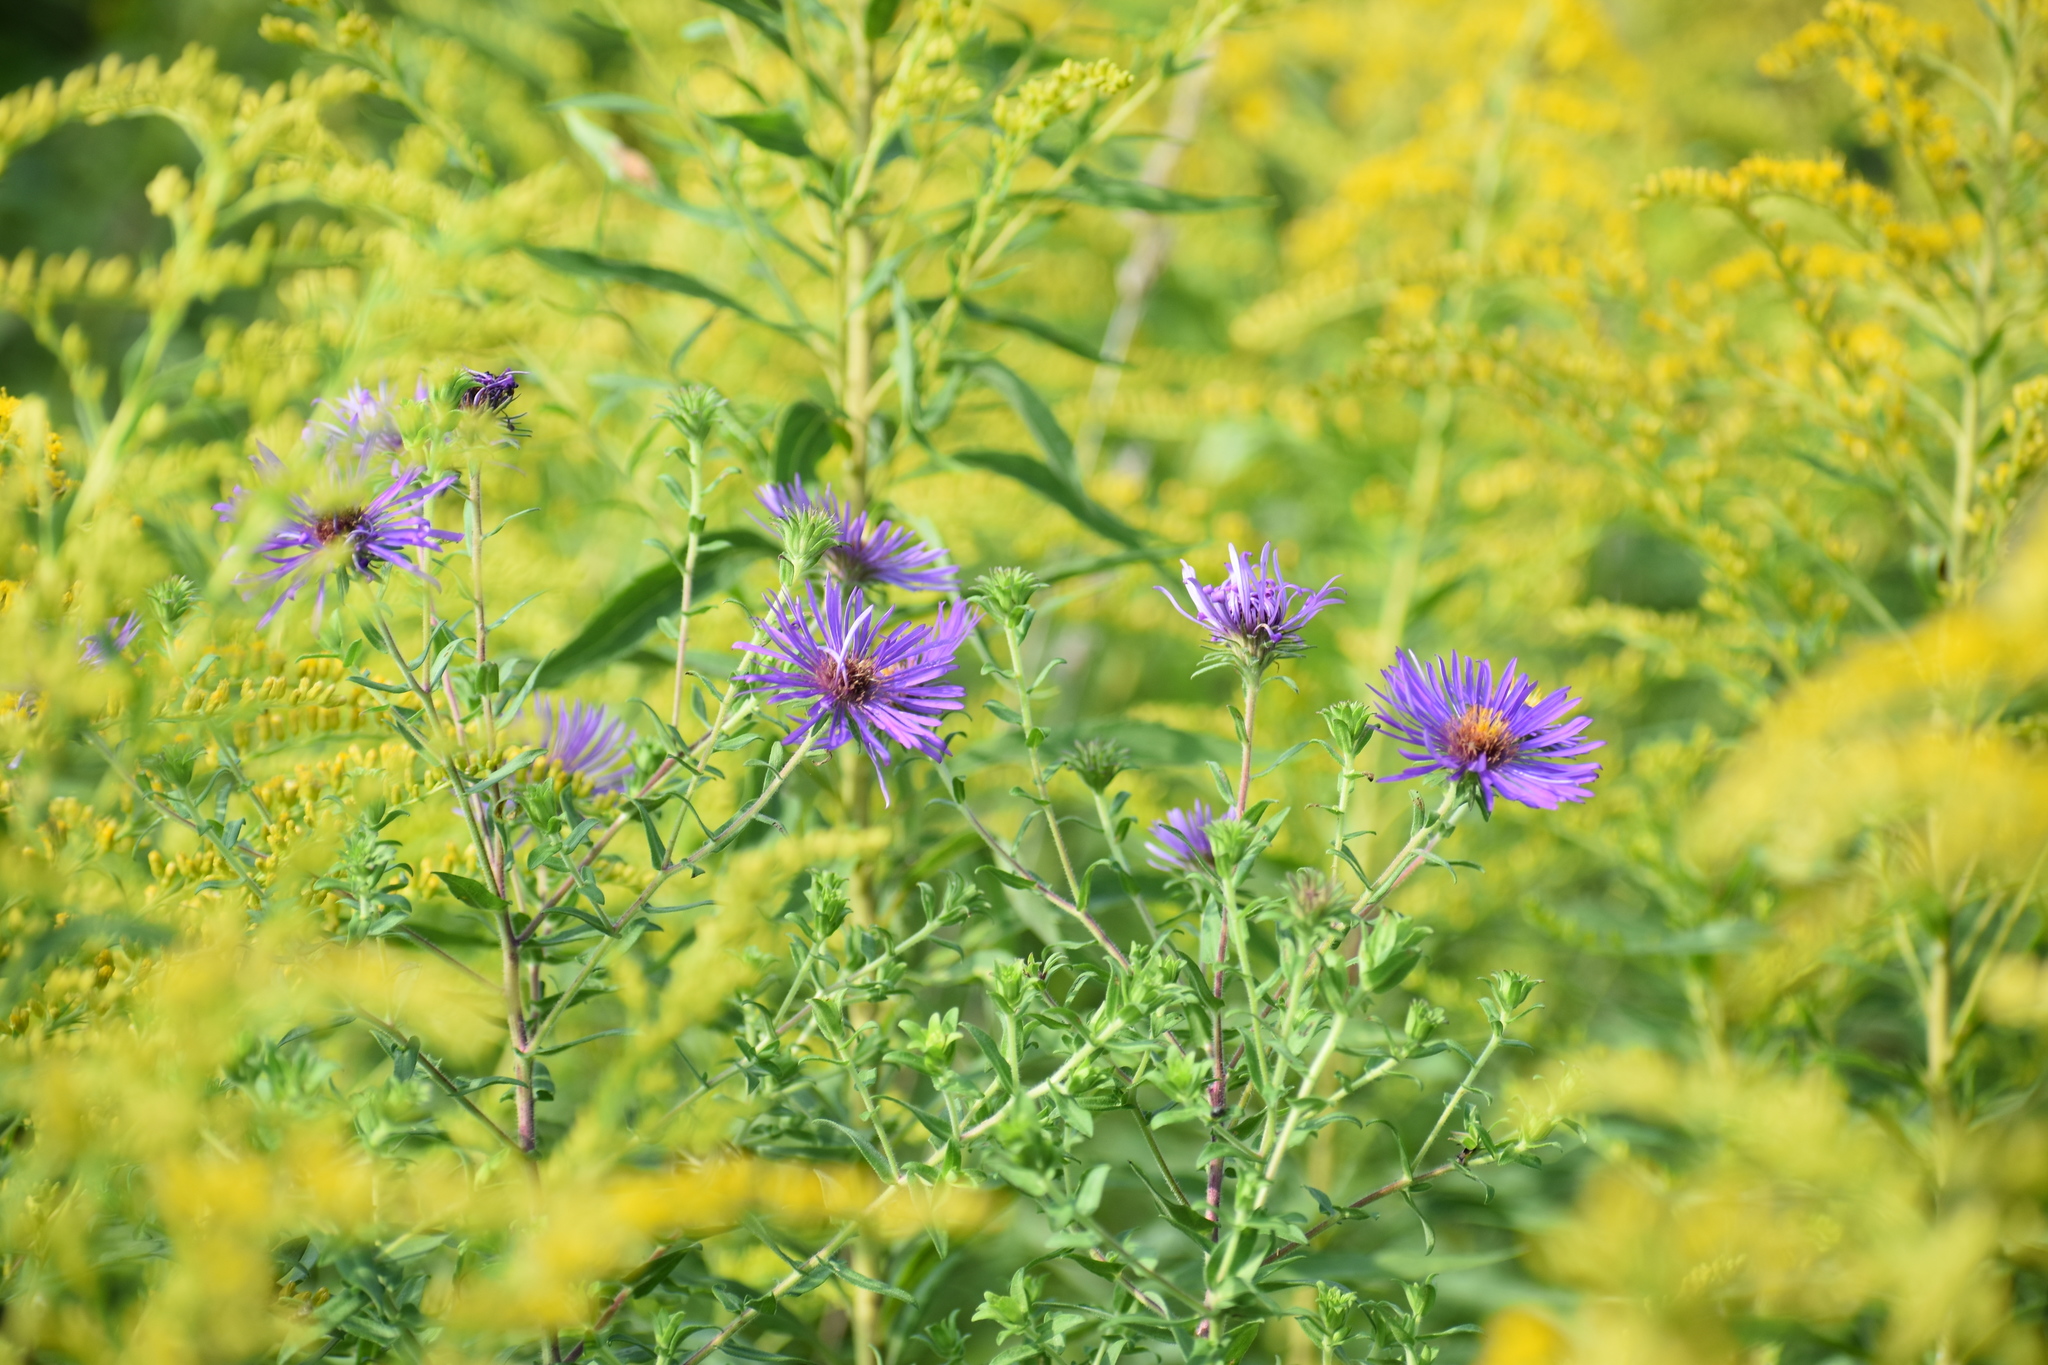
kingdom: Plantae
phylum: Tracheophyta
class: Magnoliopsida
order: Asterales
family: Asteraceae
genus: Symphyotrichum
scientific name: Symphyotrichum novae-angliae
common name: Michaelmas daisy
